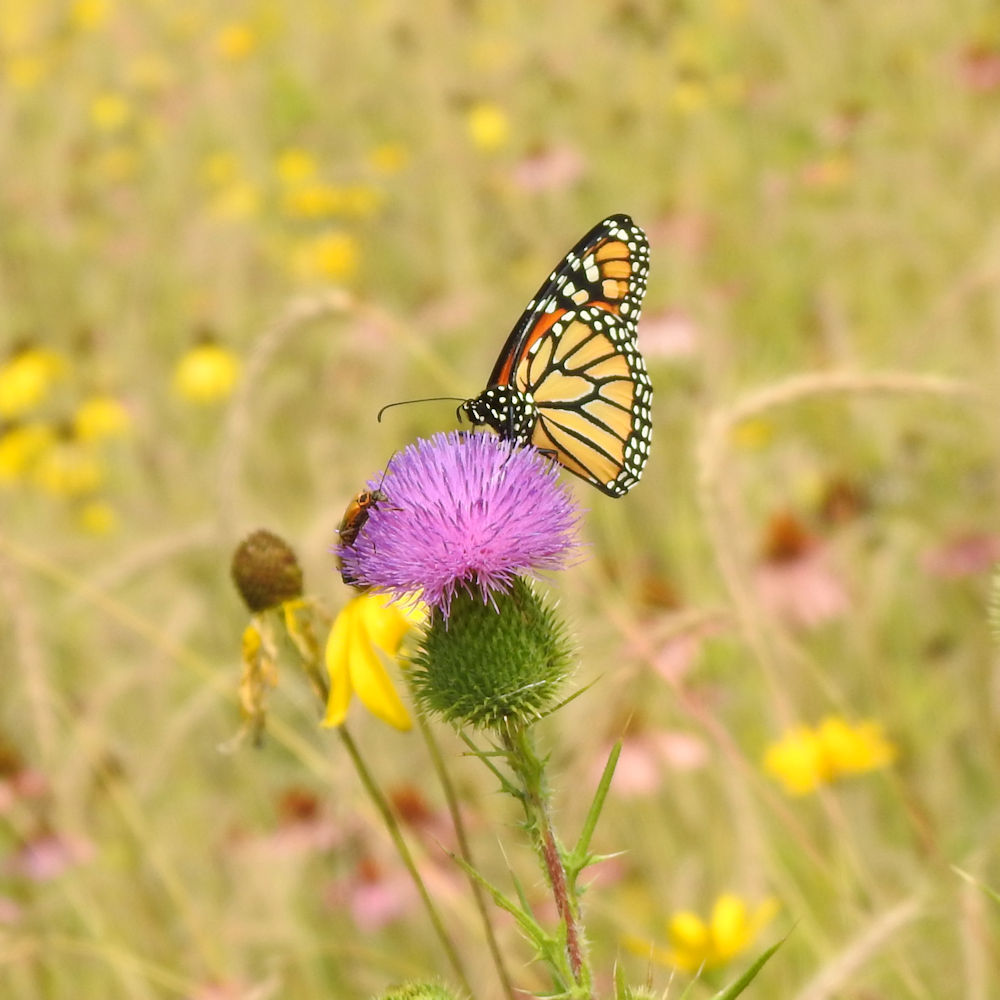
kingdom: Animalia
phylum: Arthropoda
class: Insecta
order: Lepidoptera
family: Nymphalidae
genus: Danaus
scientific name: Danaus plexippus
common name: Monarch
